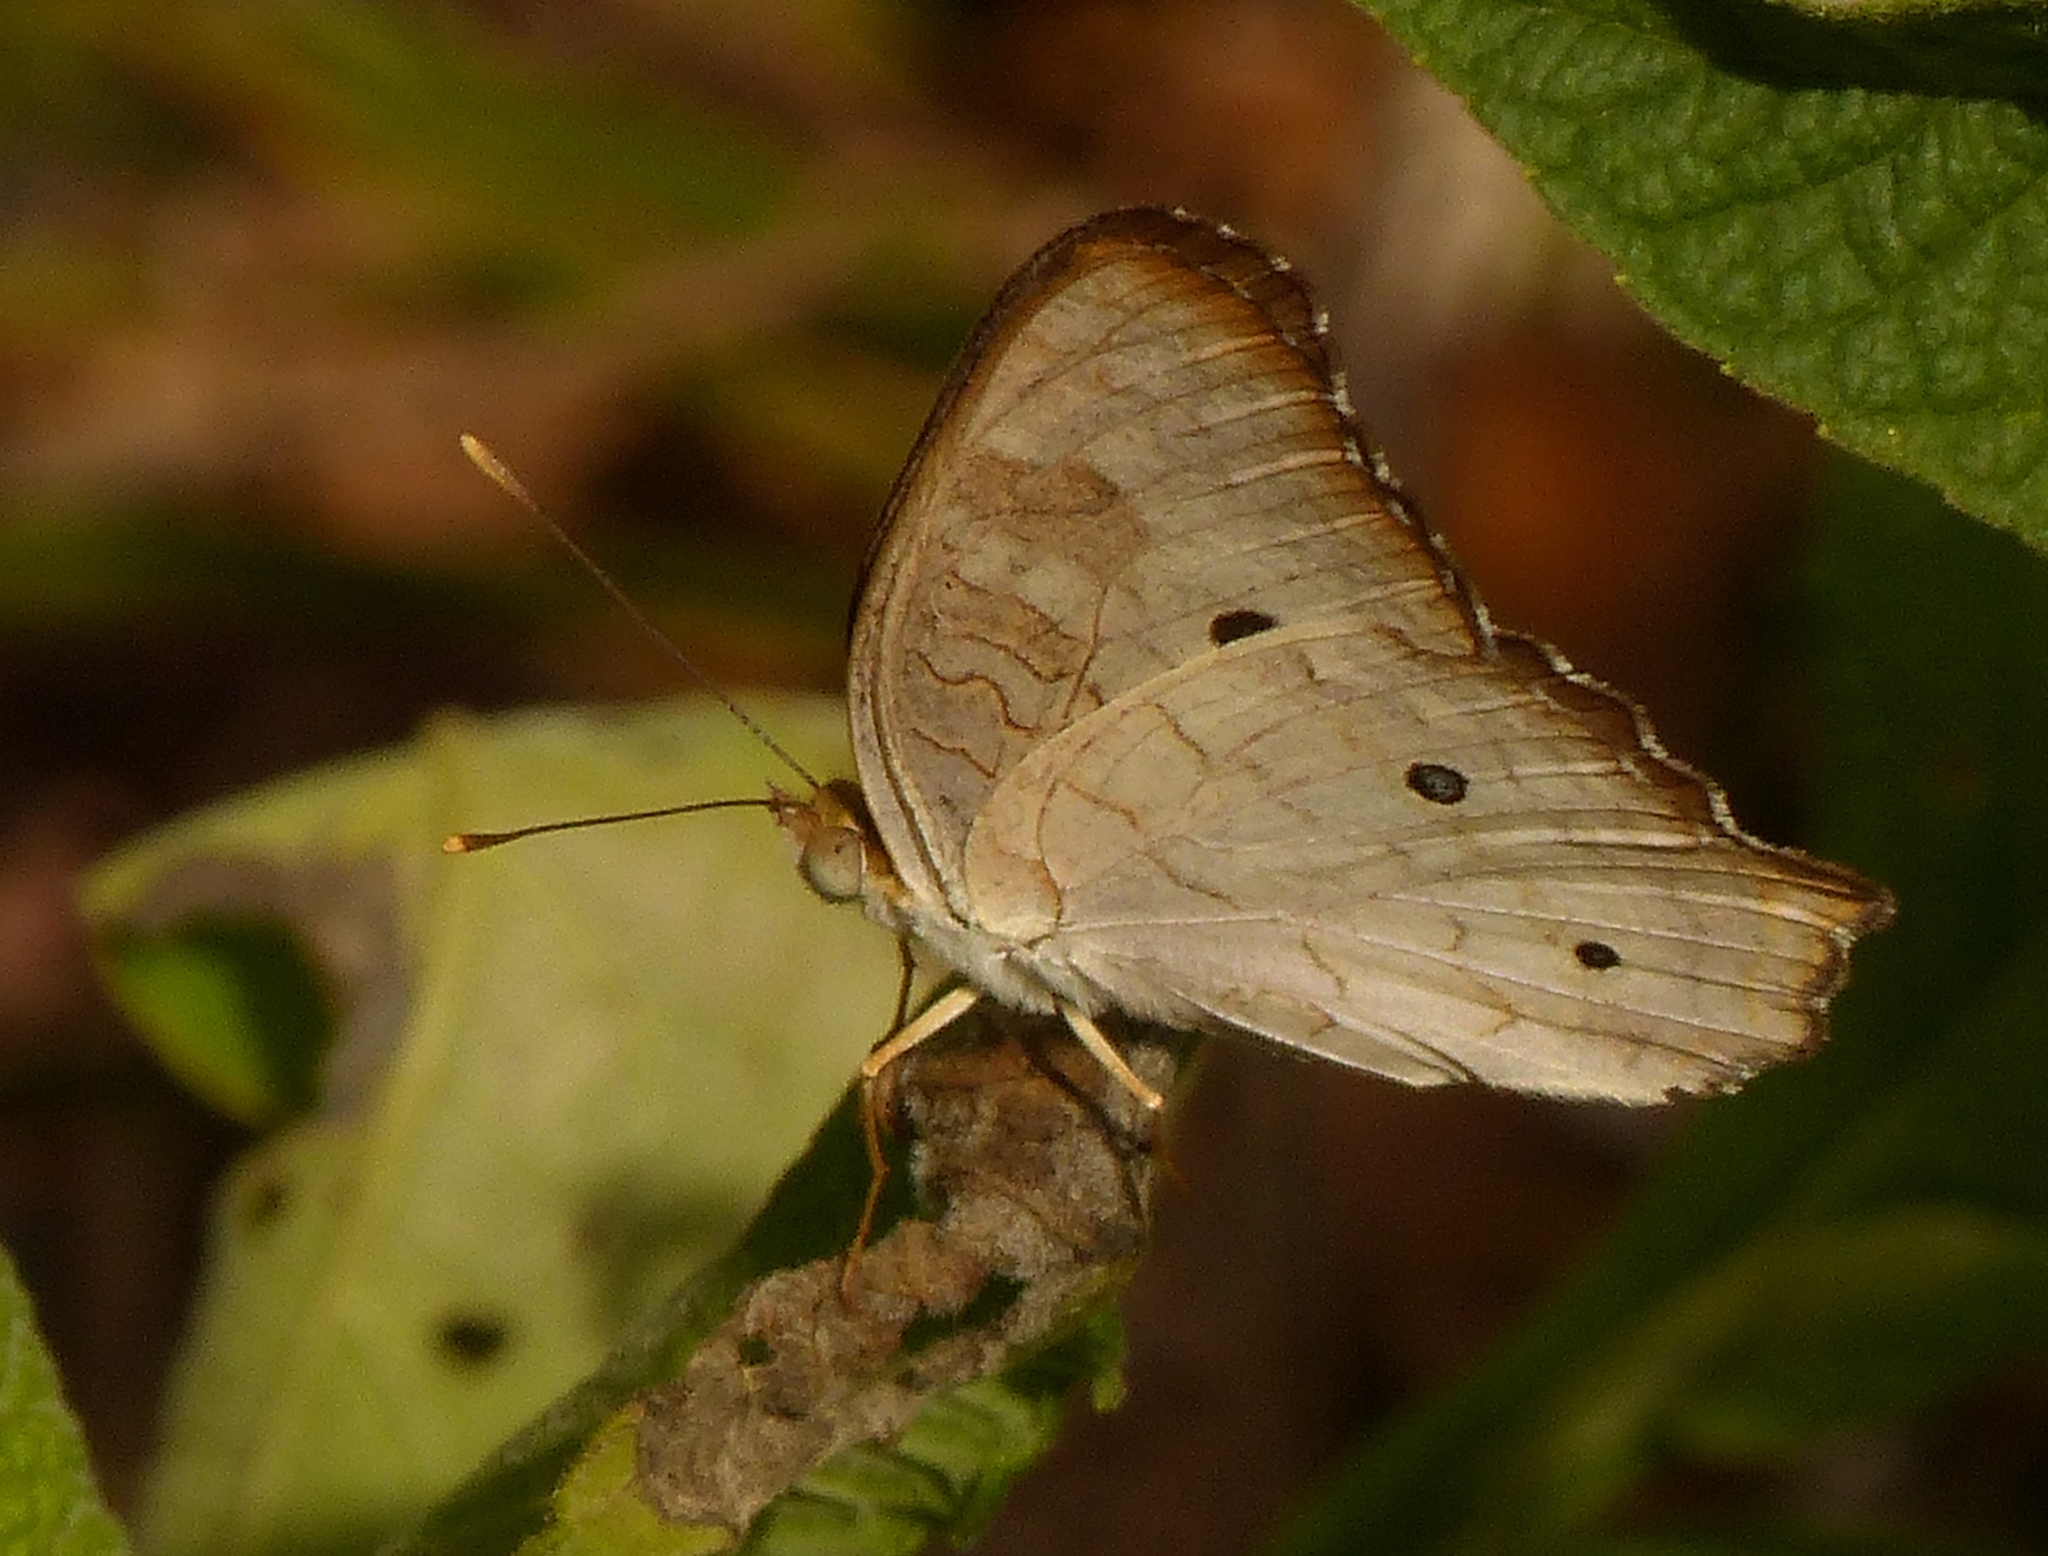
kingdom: Animalia
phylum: Arthropoda
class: Insecta
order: Lepidoptera
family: Nymphalidae
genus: Anartia
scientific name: Anartia jatrophae
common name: White peacock
